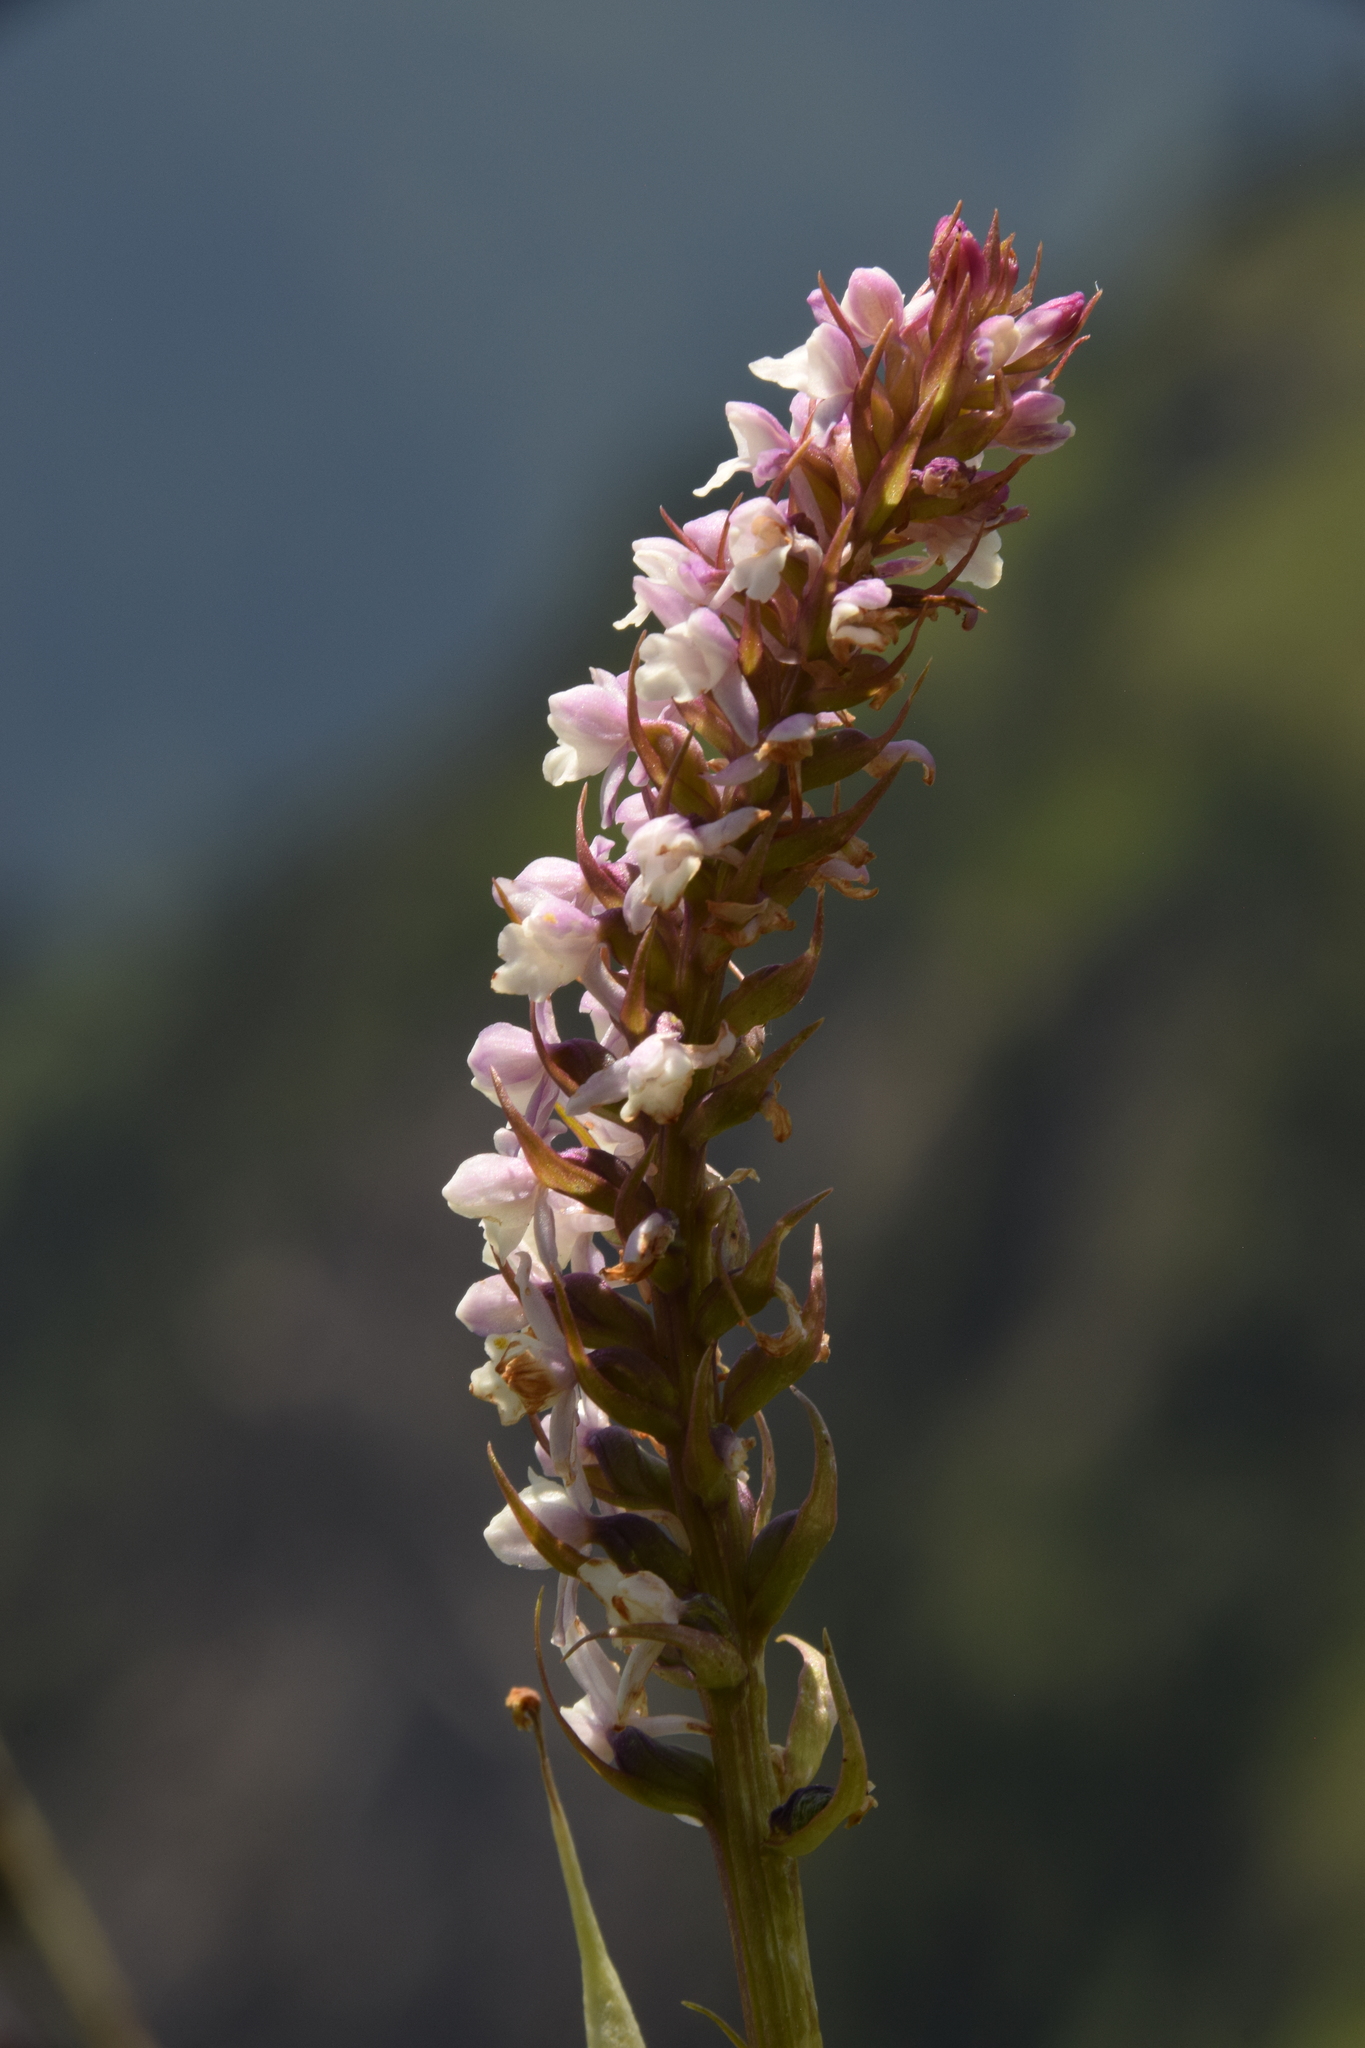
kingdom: Plantae
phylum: Tracheophyta
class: Liliopsida
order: Asparagales
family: Orchidaceae
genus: Gymnadenia
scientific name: Gymnadenia odoratissima
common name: Scented gymnadenia
